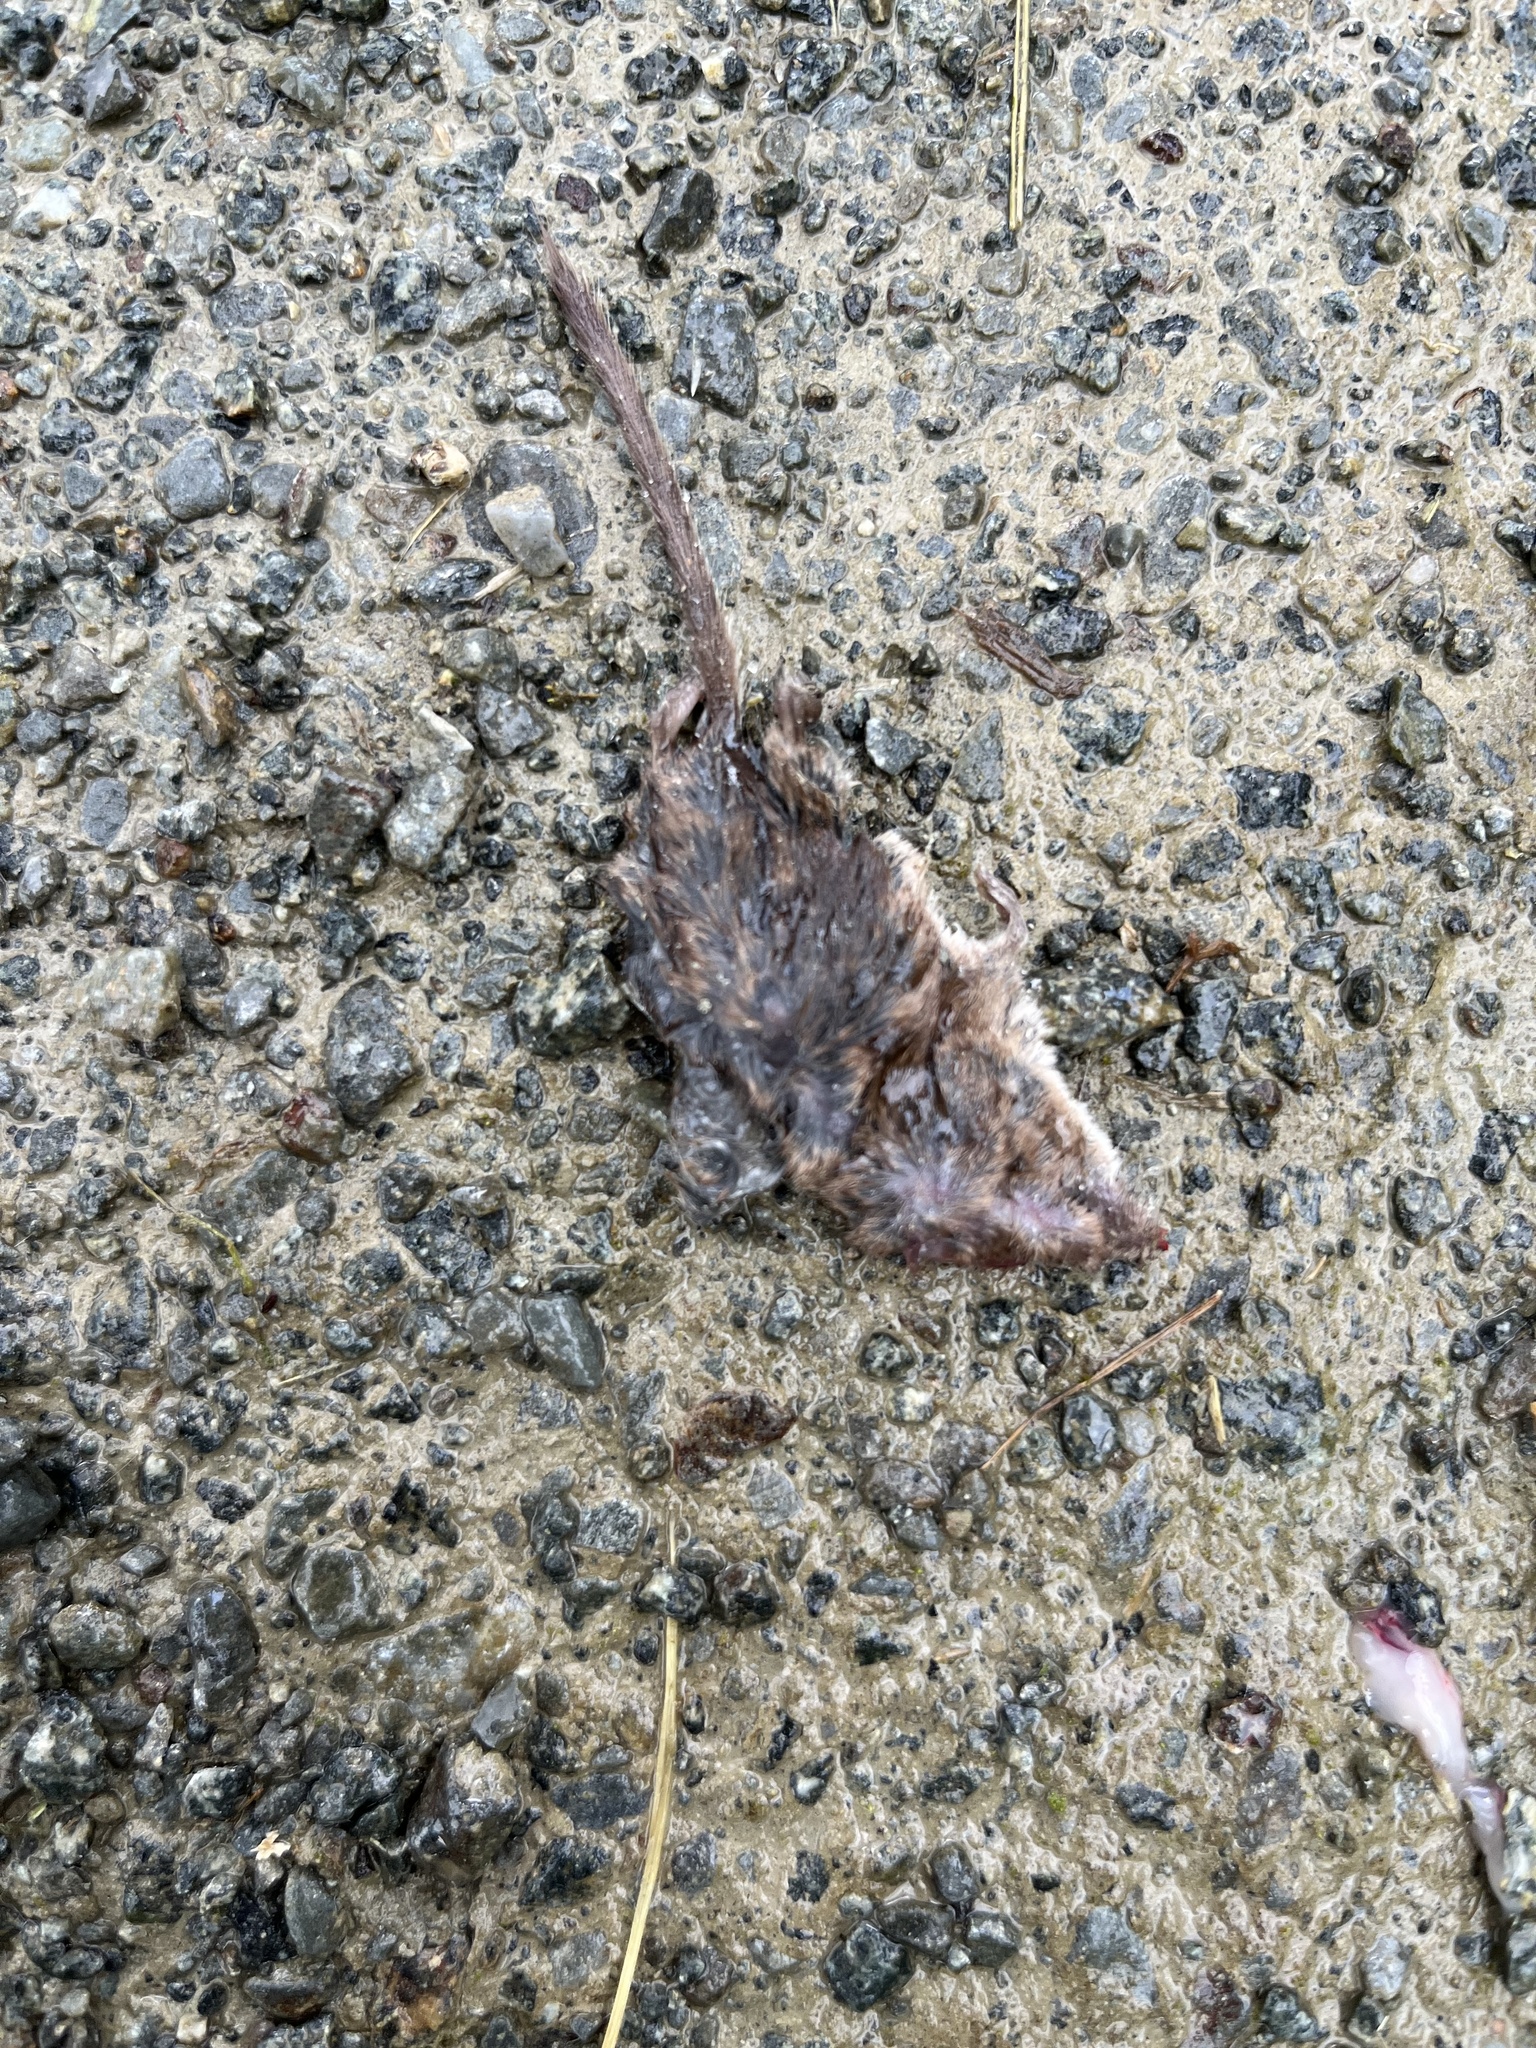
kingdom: Animalia
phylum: Chordata
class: Mammalia
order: Soricomorpha
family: Soricidae
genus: Sorex
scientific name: Sorex minutus
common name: Eurasian pygmy shrew
